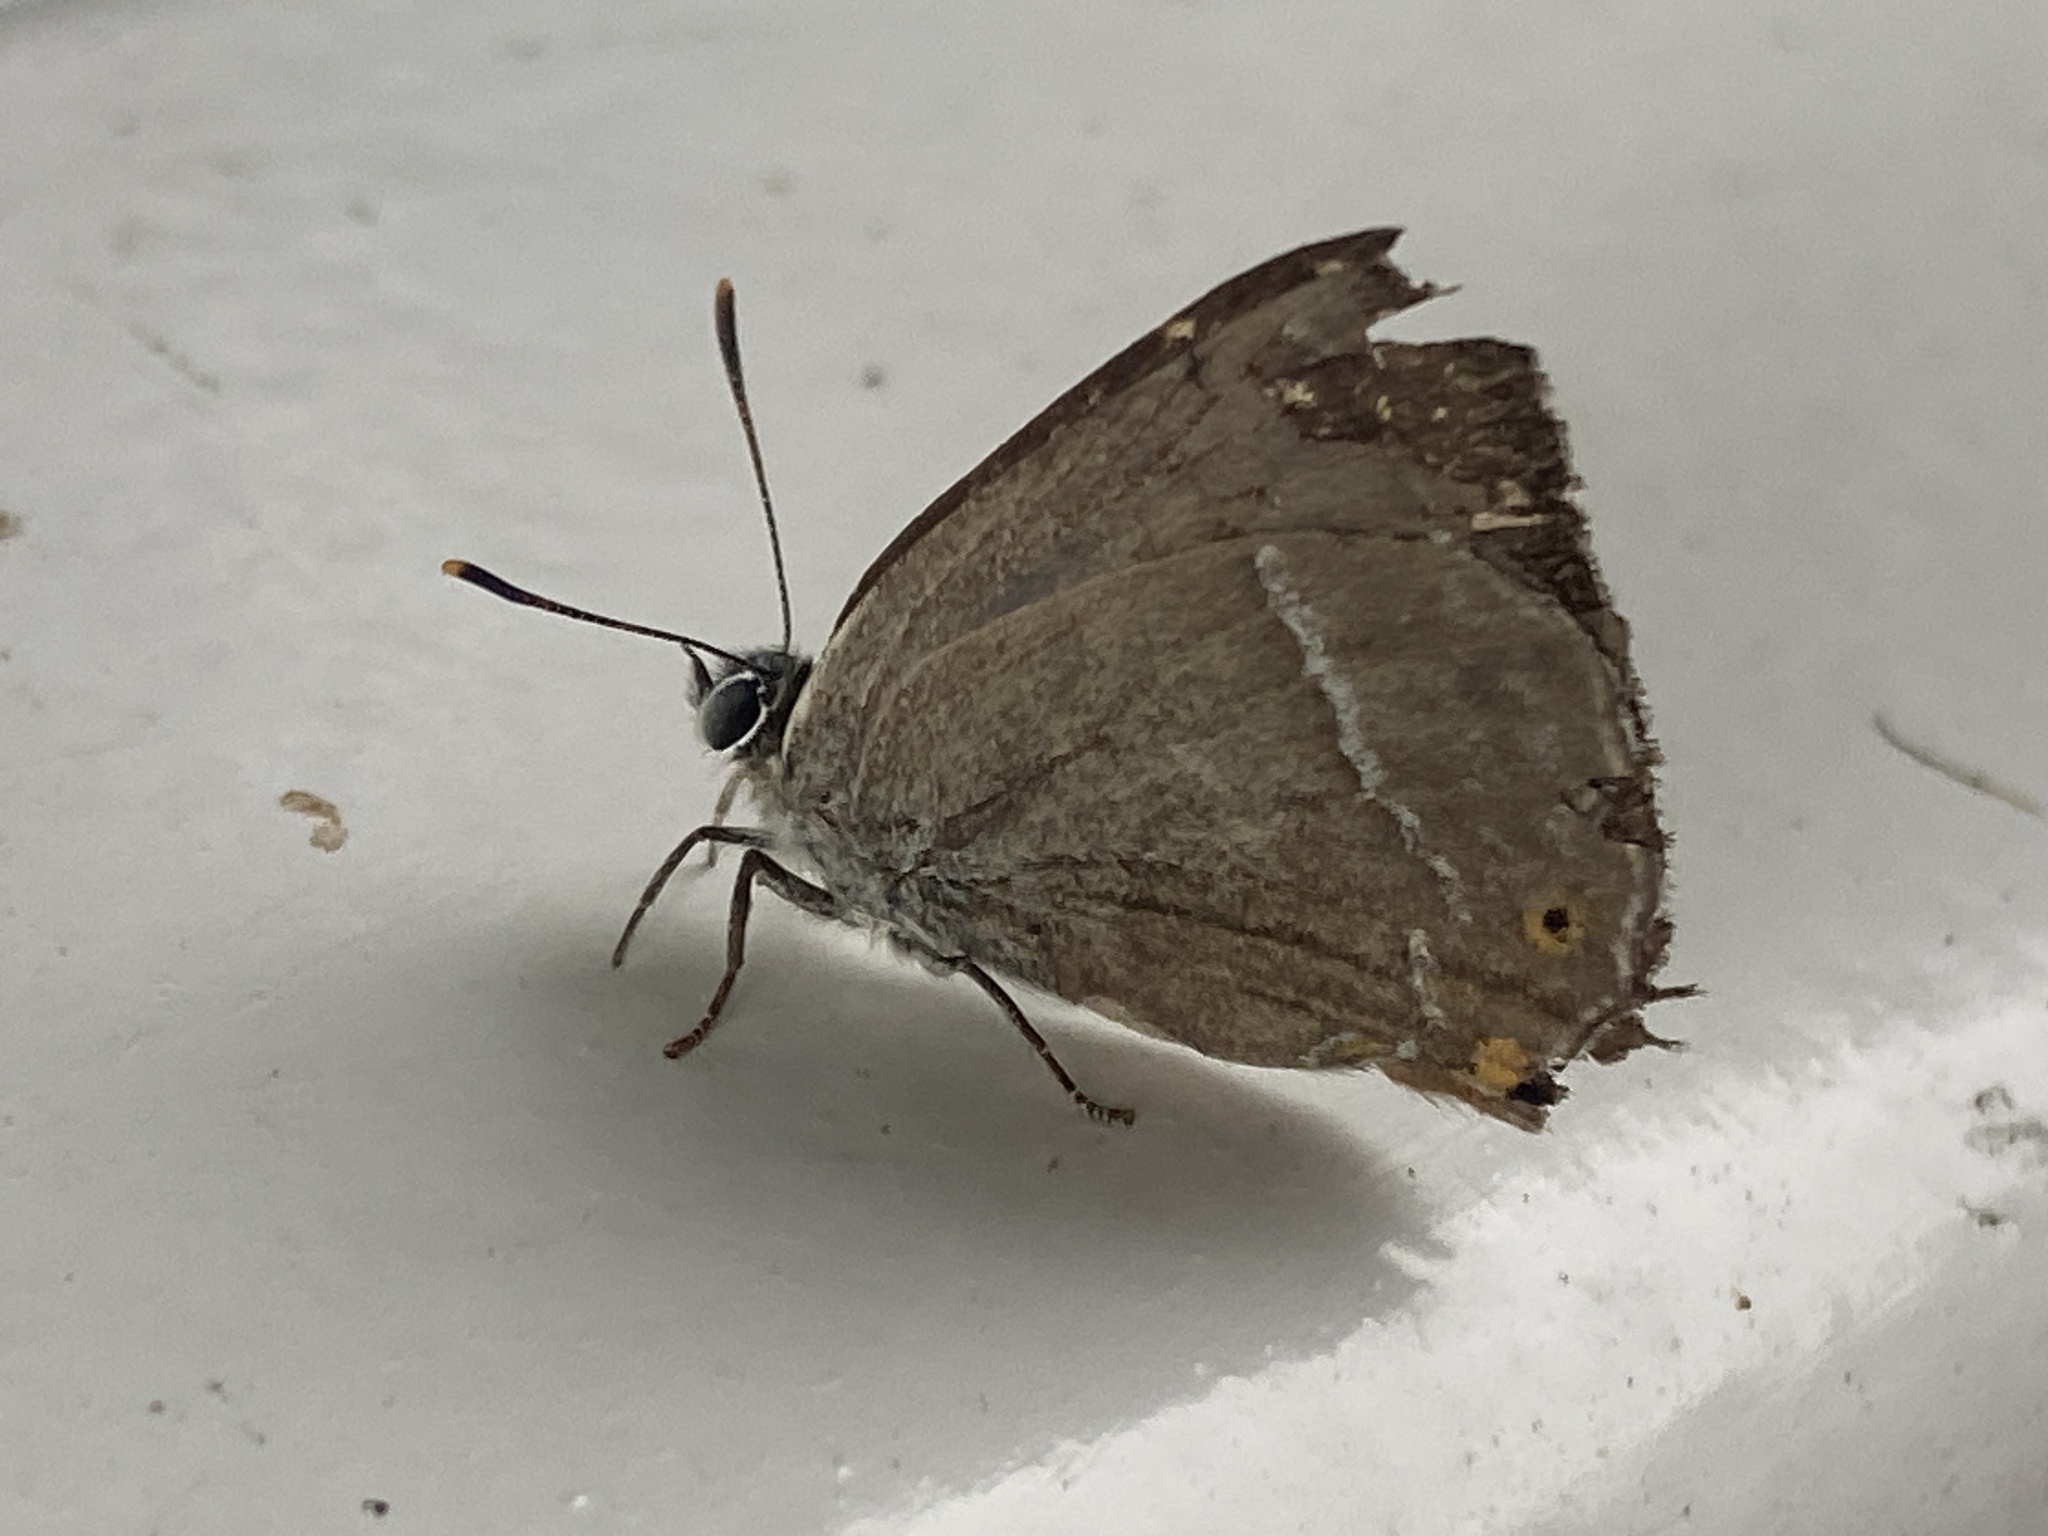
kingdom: Animalia
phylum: Arthropoda
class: Insecta
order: Lepidoptera
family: Lycaenidae
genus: Quercusia
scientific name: Quercusia quercus
